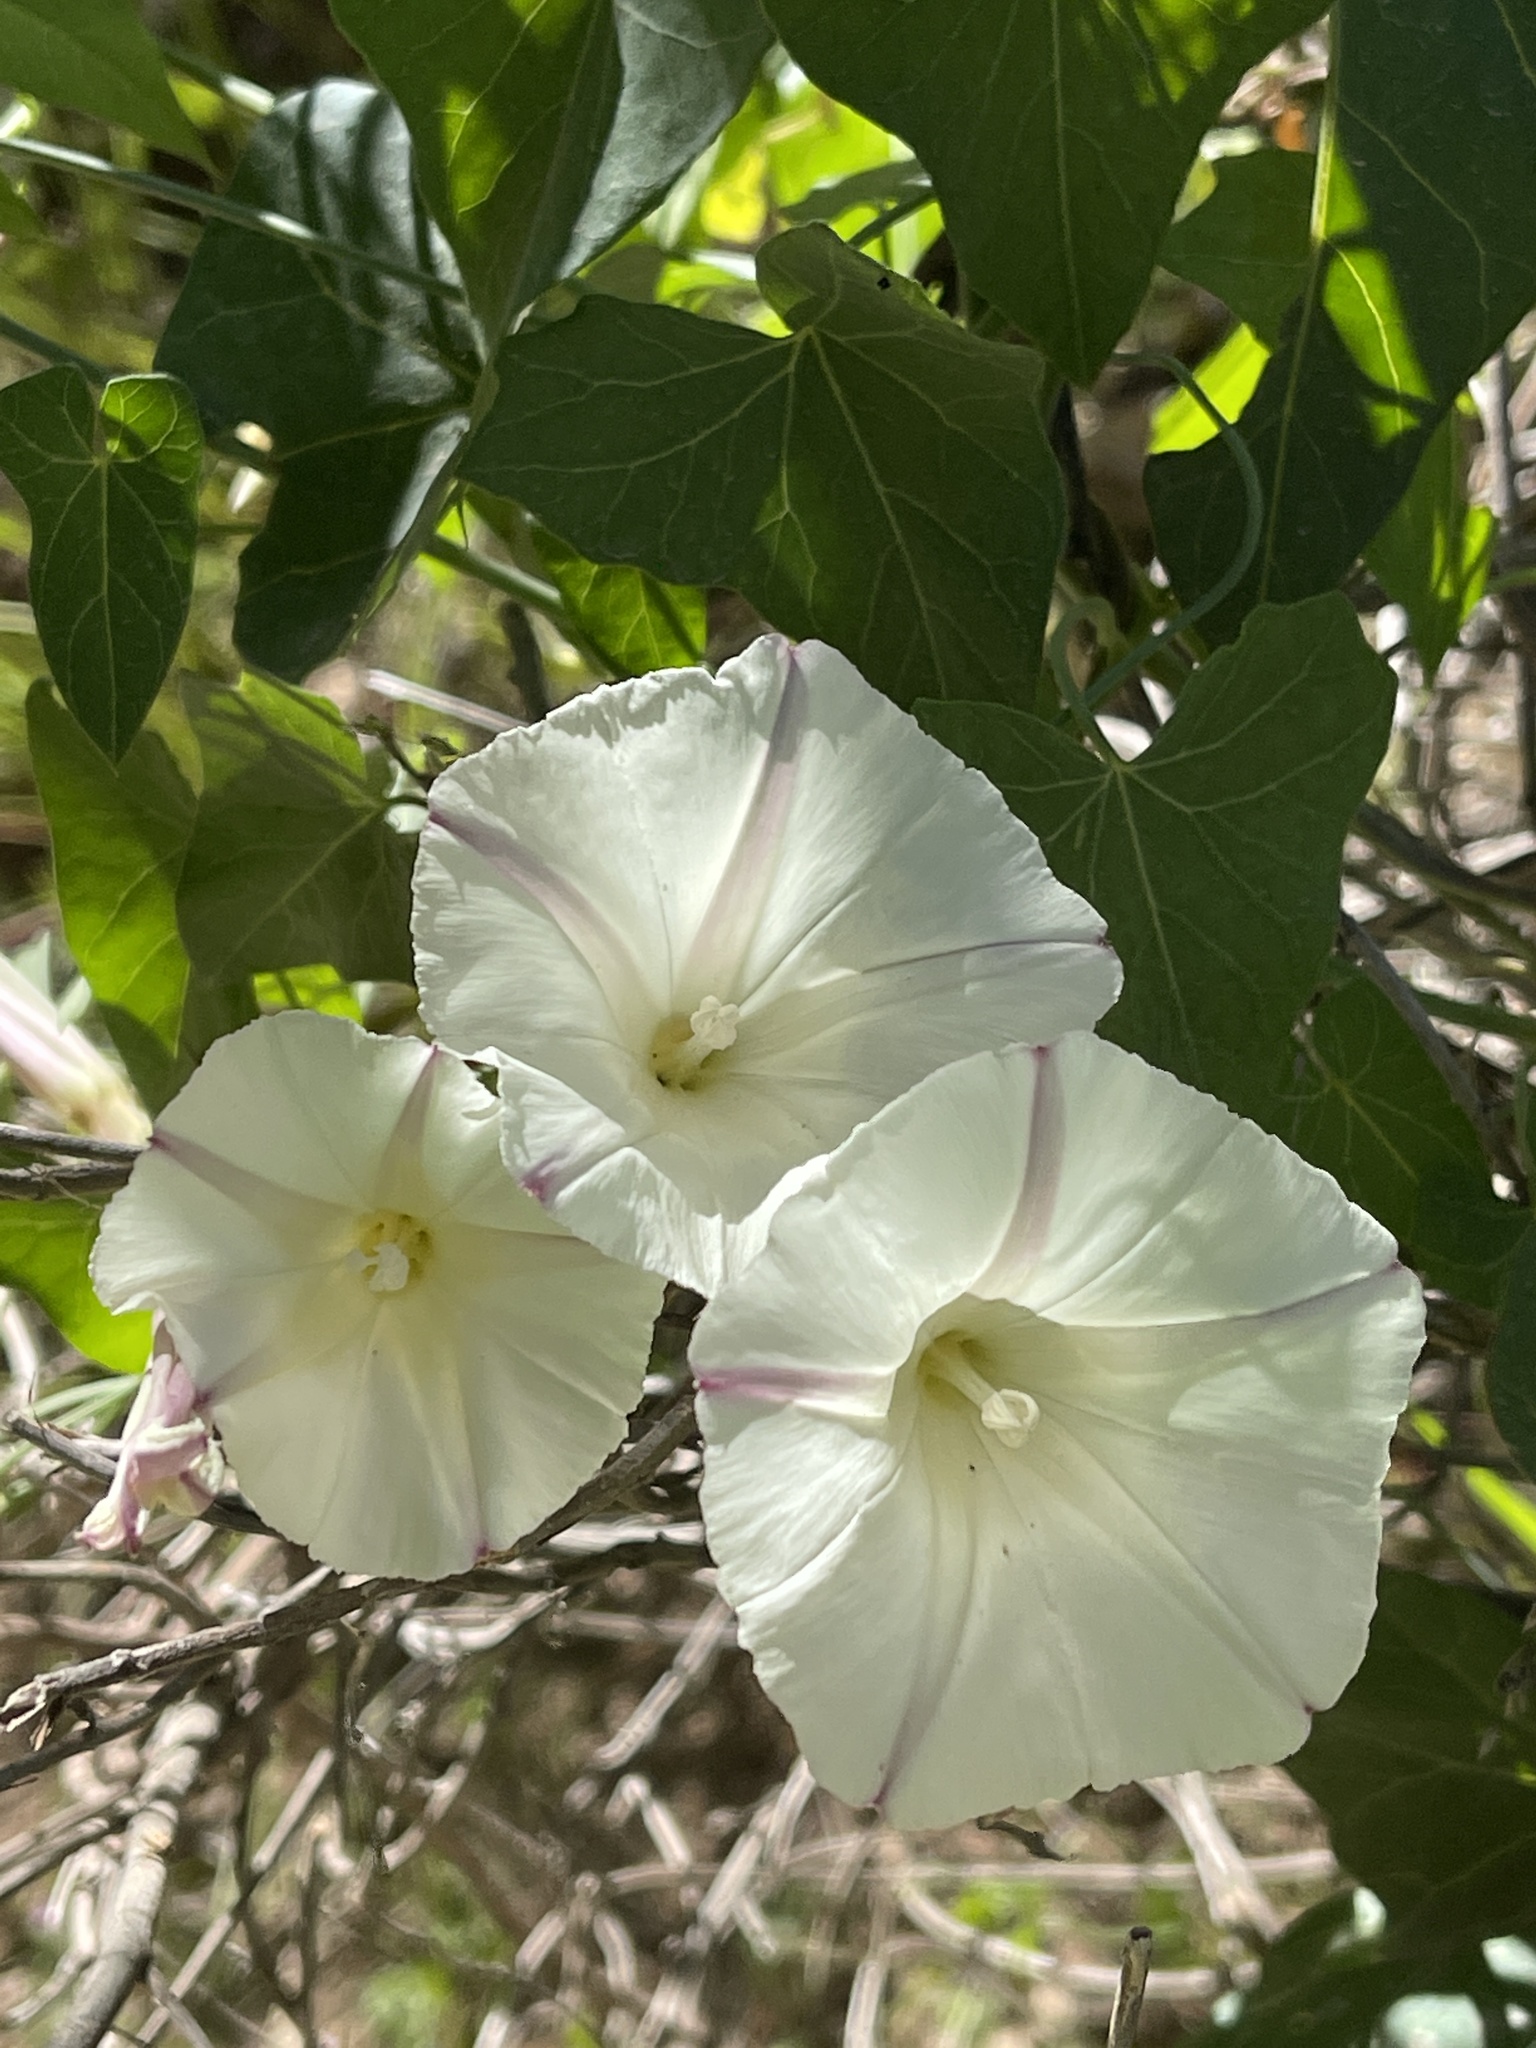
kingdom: Plantae
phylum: Tracheophyta
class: Magnoliopsida
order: Solanales
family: Convolvulaceae
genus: Calystegia
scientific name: Calystegia purpurata
